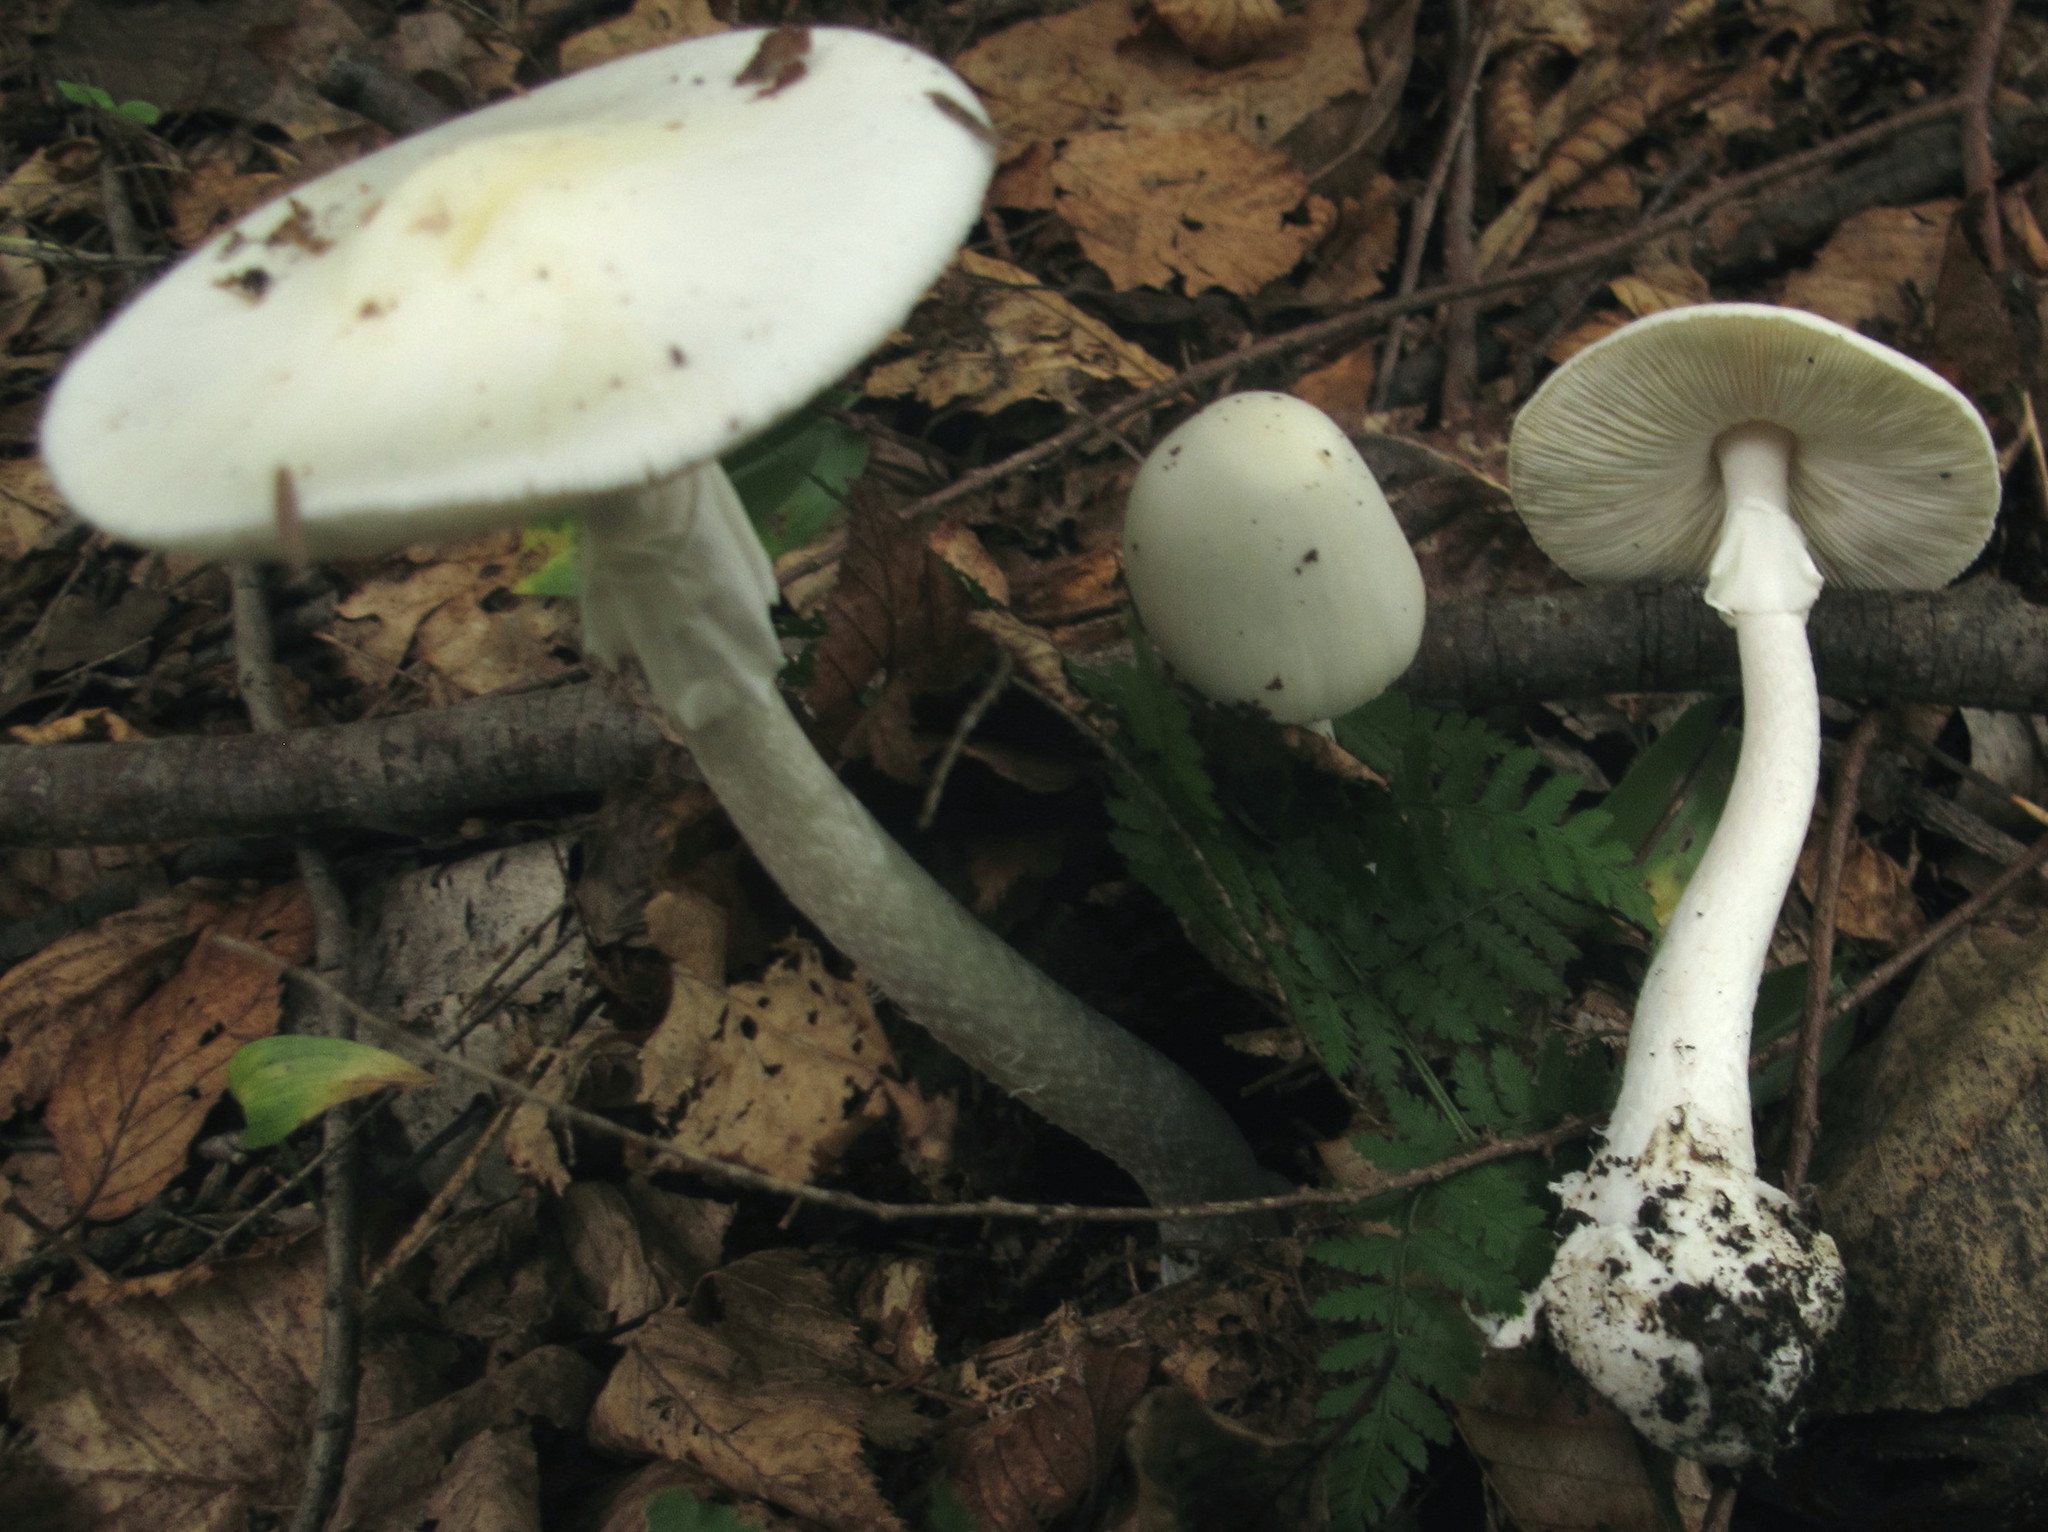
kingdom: Fungi
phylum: Basidiomycota
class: Agaricomycetes
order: Agaricales
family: Amanitaceae
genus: Amanita
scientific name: Amanita bisporigera
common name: Eastern north american destroying angel
